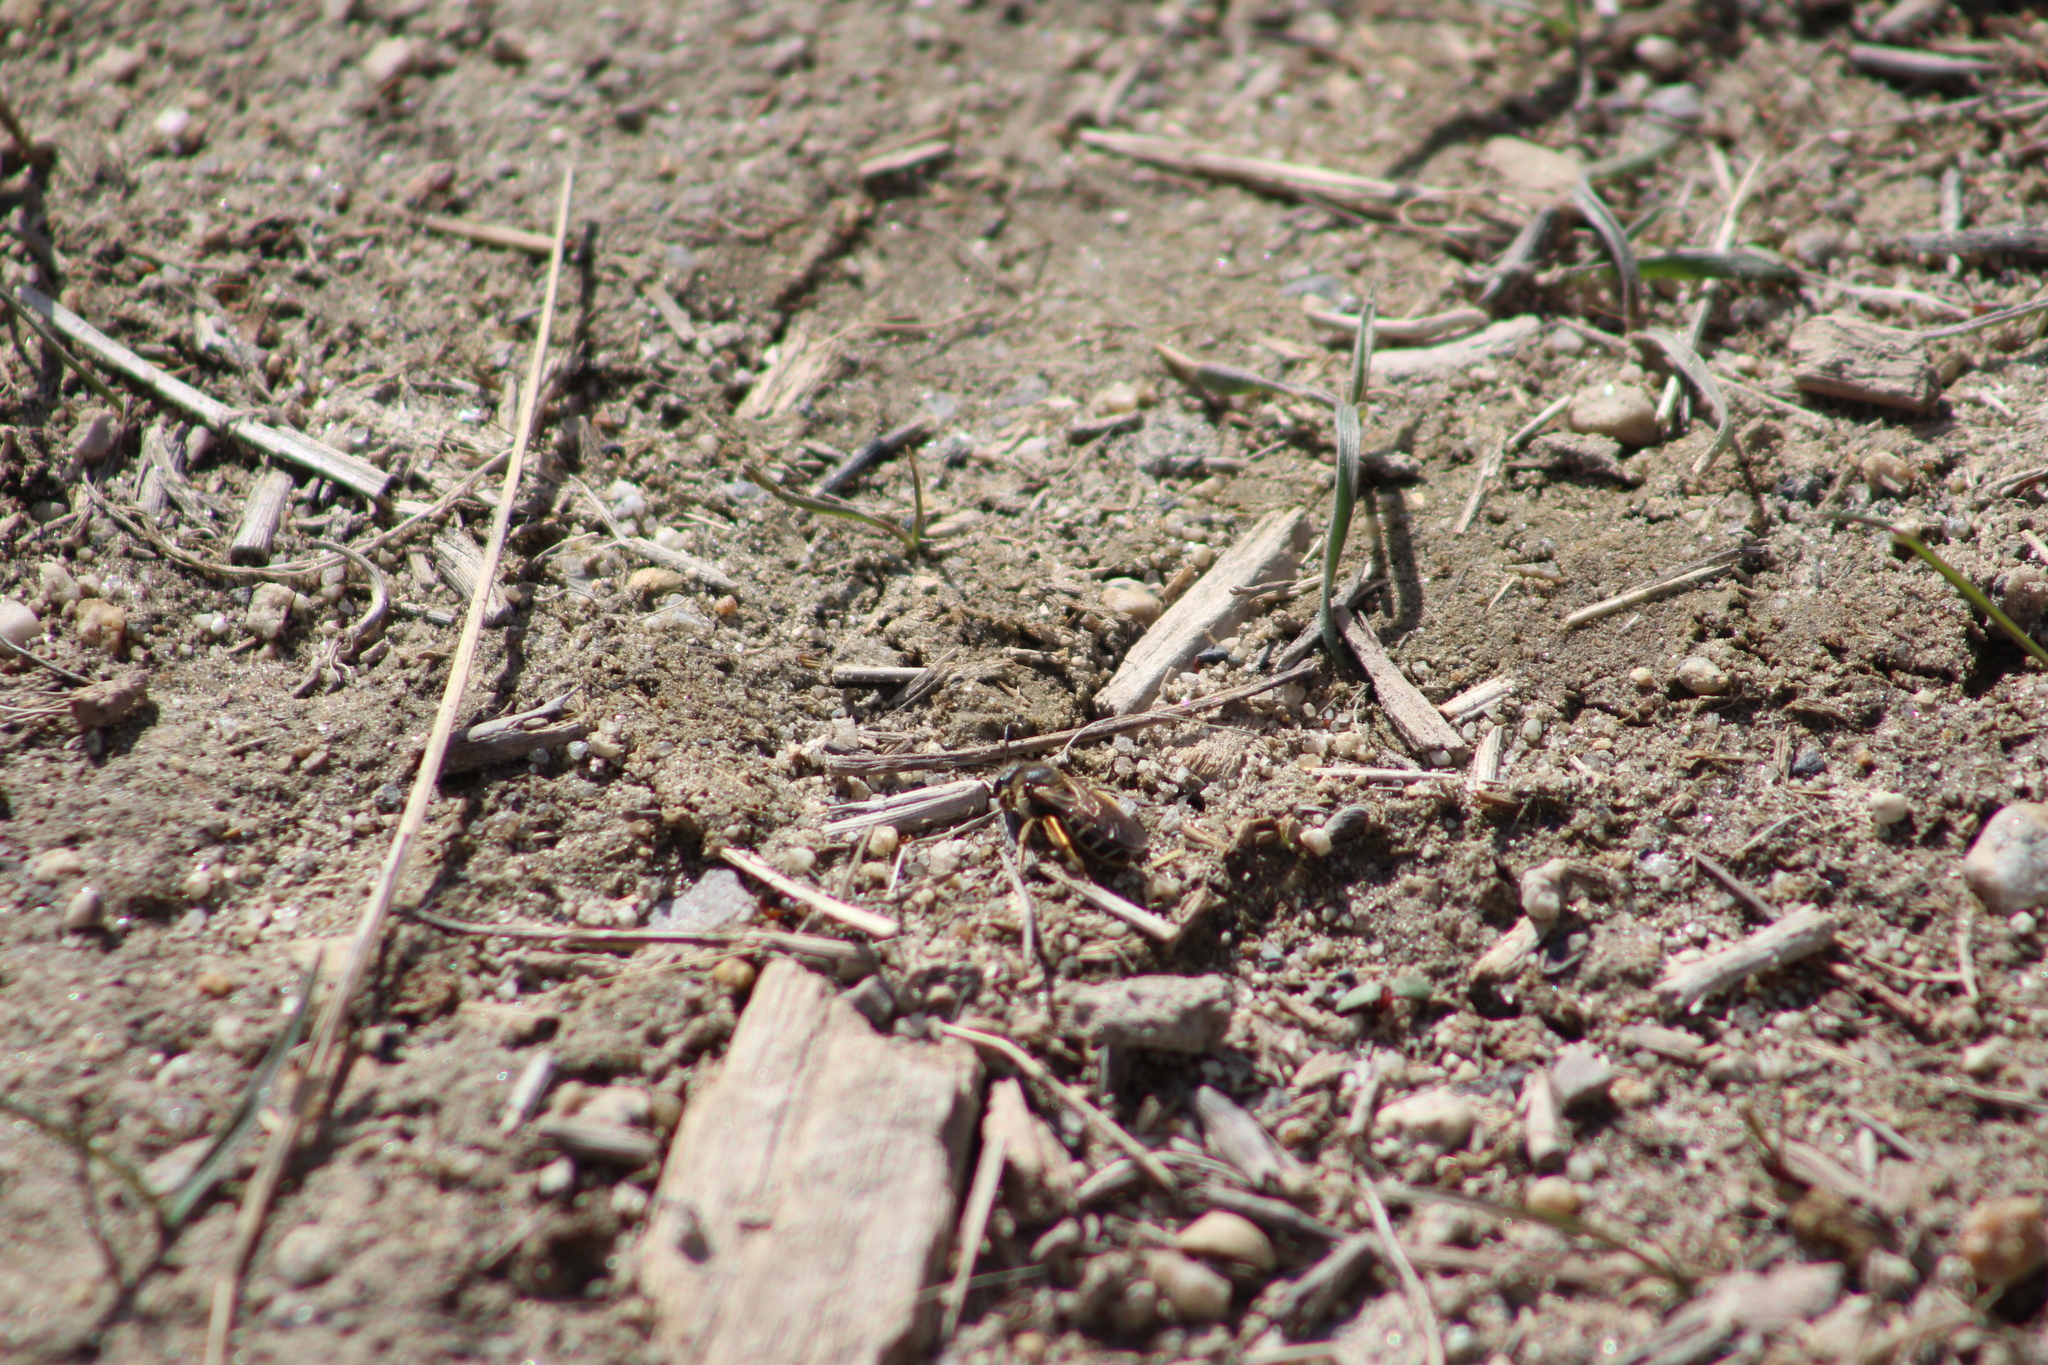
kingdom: Animalia
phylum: Arthropoda
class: Insecta
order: Hymenoptera
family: Halictidae
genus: Halictus
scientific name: Halictus rubicundus
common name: Orange-legged furrow bee
